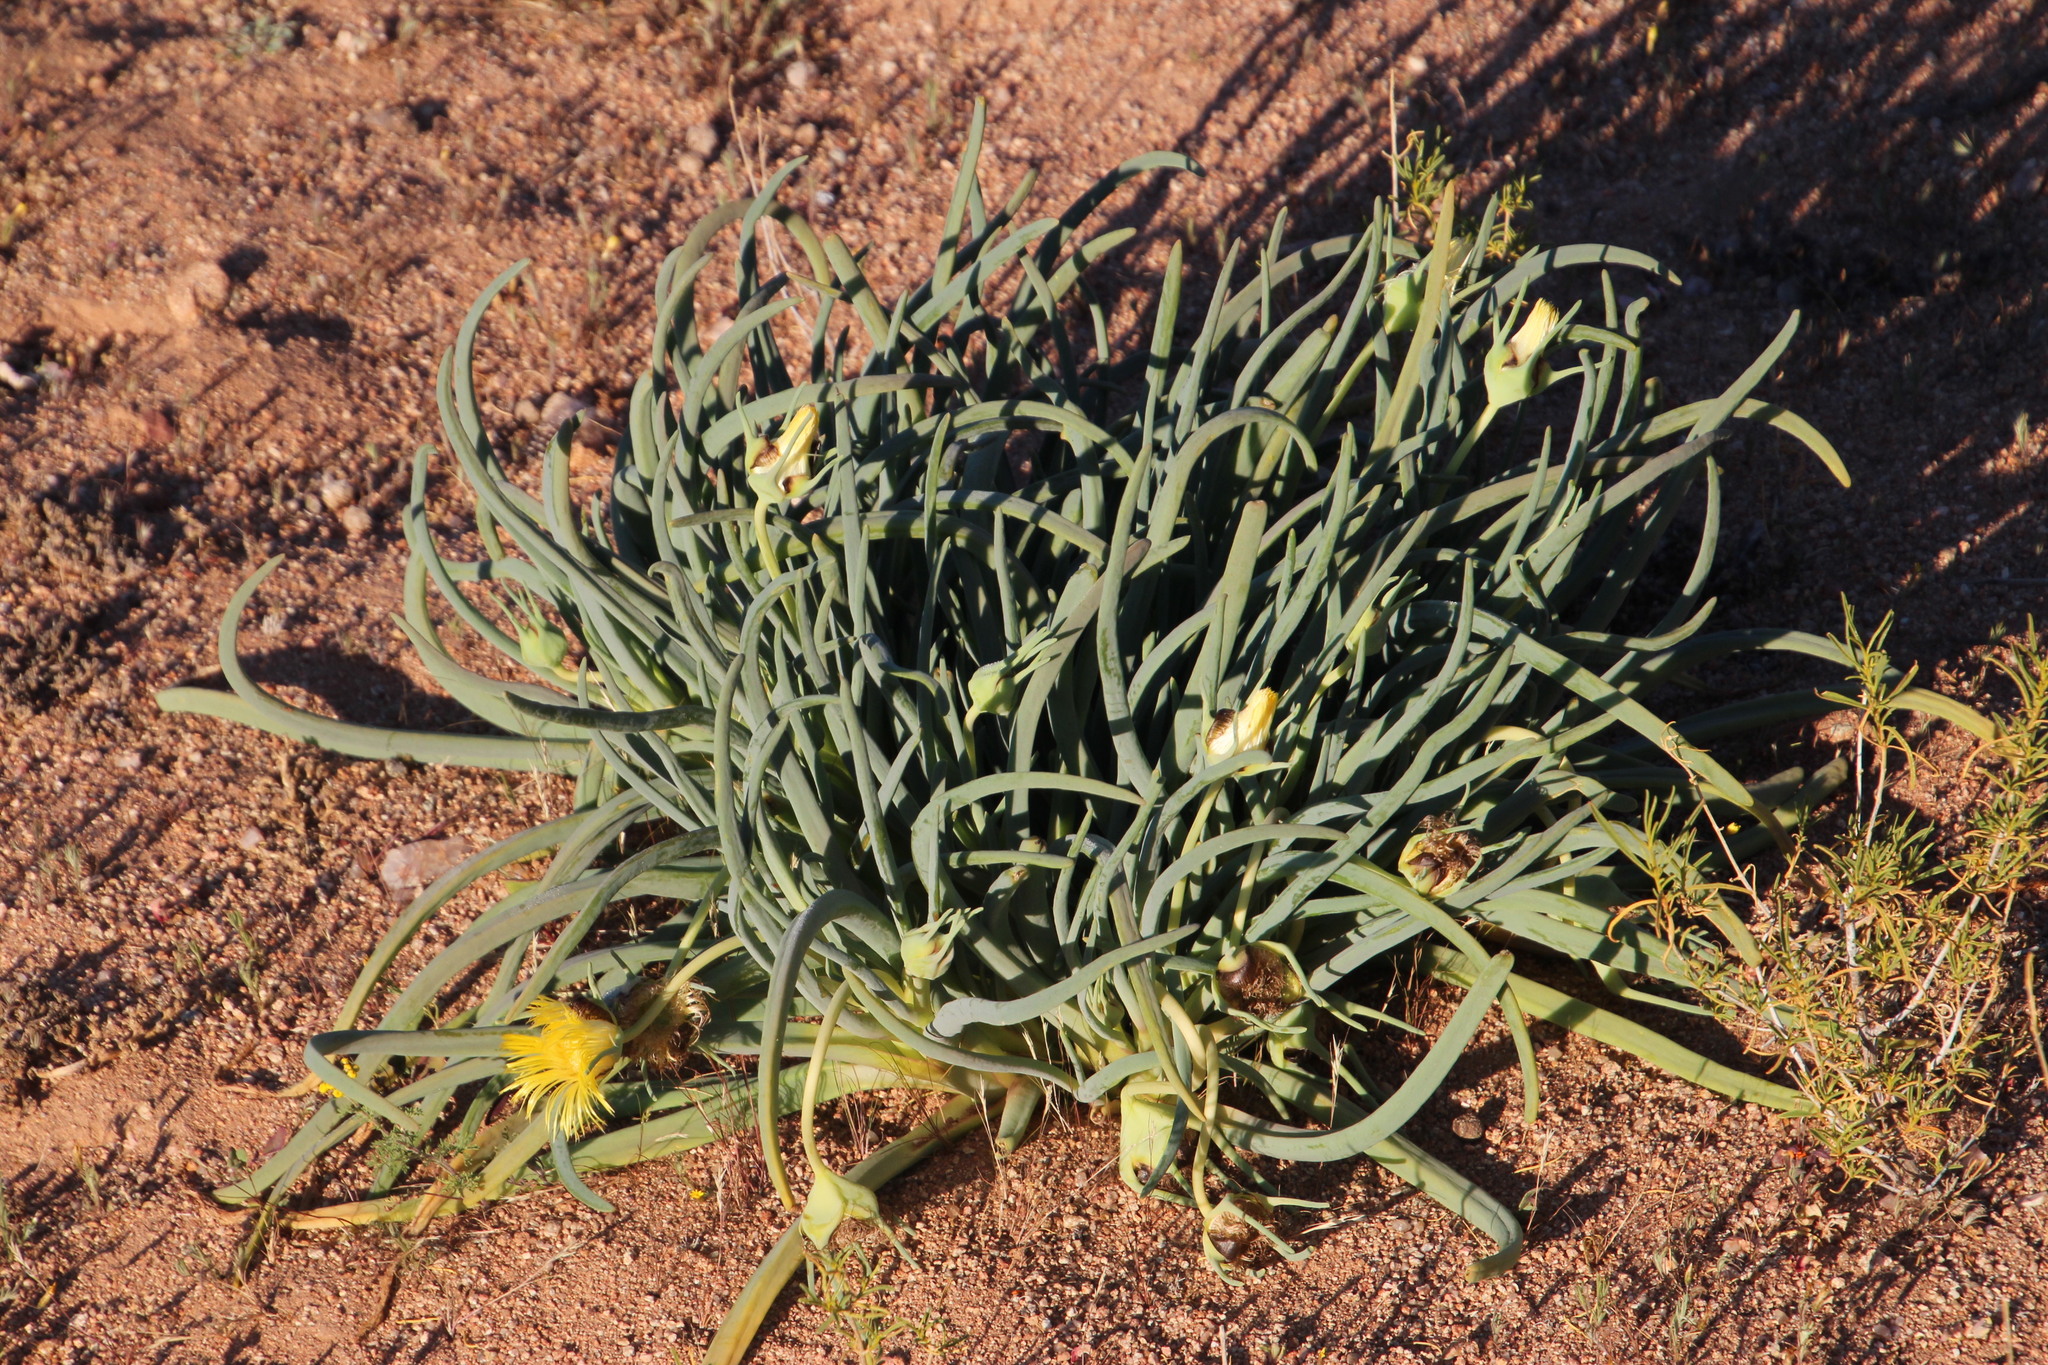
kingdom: Plantae
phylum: Tracheophyta
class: Magnoliopsida
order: Caryophyllales
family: Aizoaceae
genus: Conicosia
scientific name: Conicosia pugioniformis
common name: Narrow-leaved iceplant
